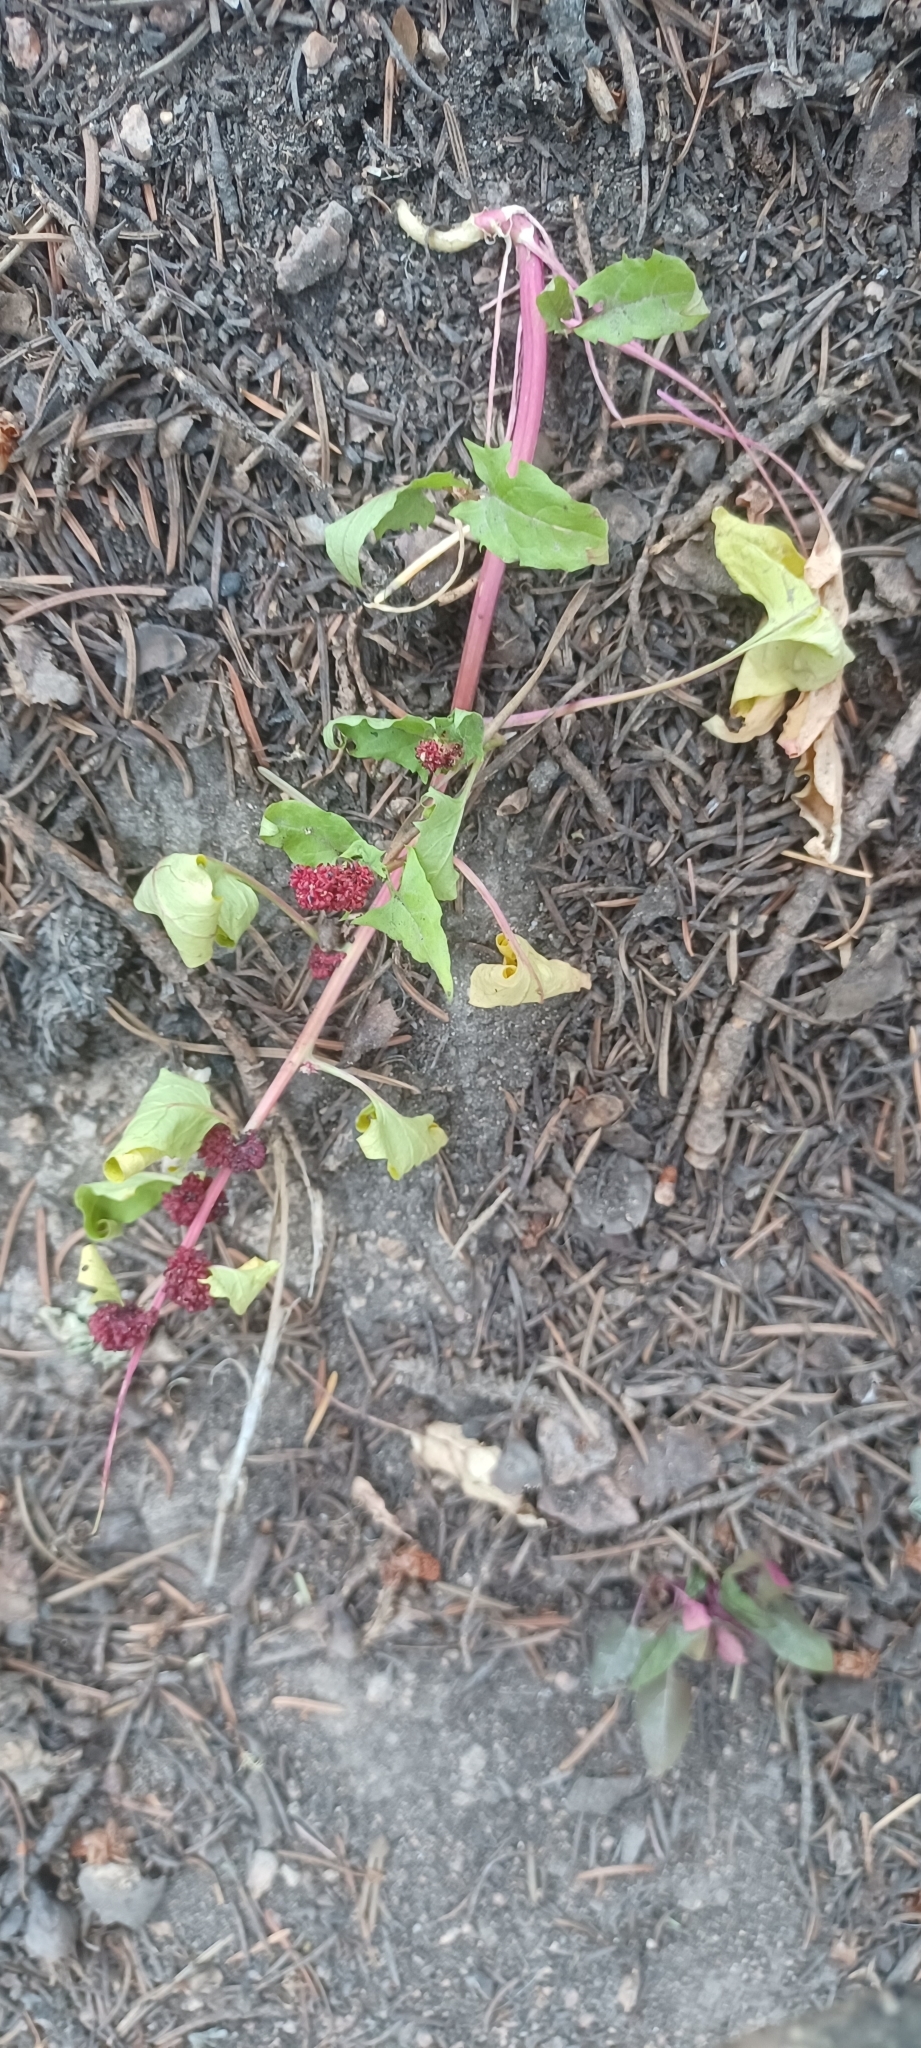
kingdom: Plantae
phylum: Tracheophyta
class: Magnoliopsida
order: Caryophyllales
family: Amaranthaceae
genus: Blitum
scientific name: Blitum capitatum
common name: Strawberry-blight
